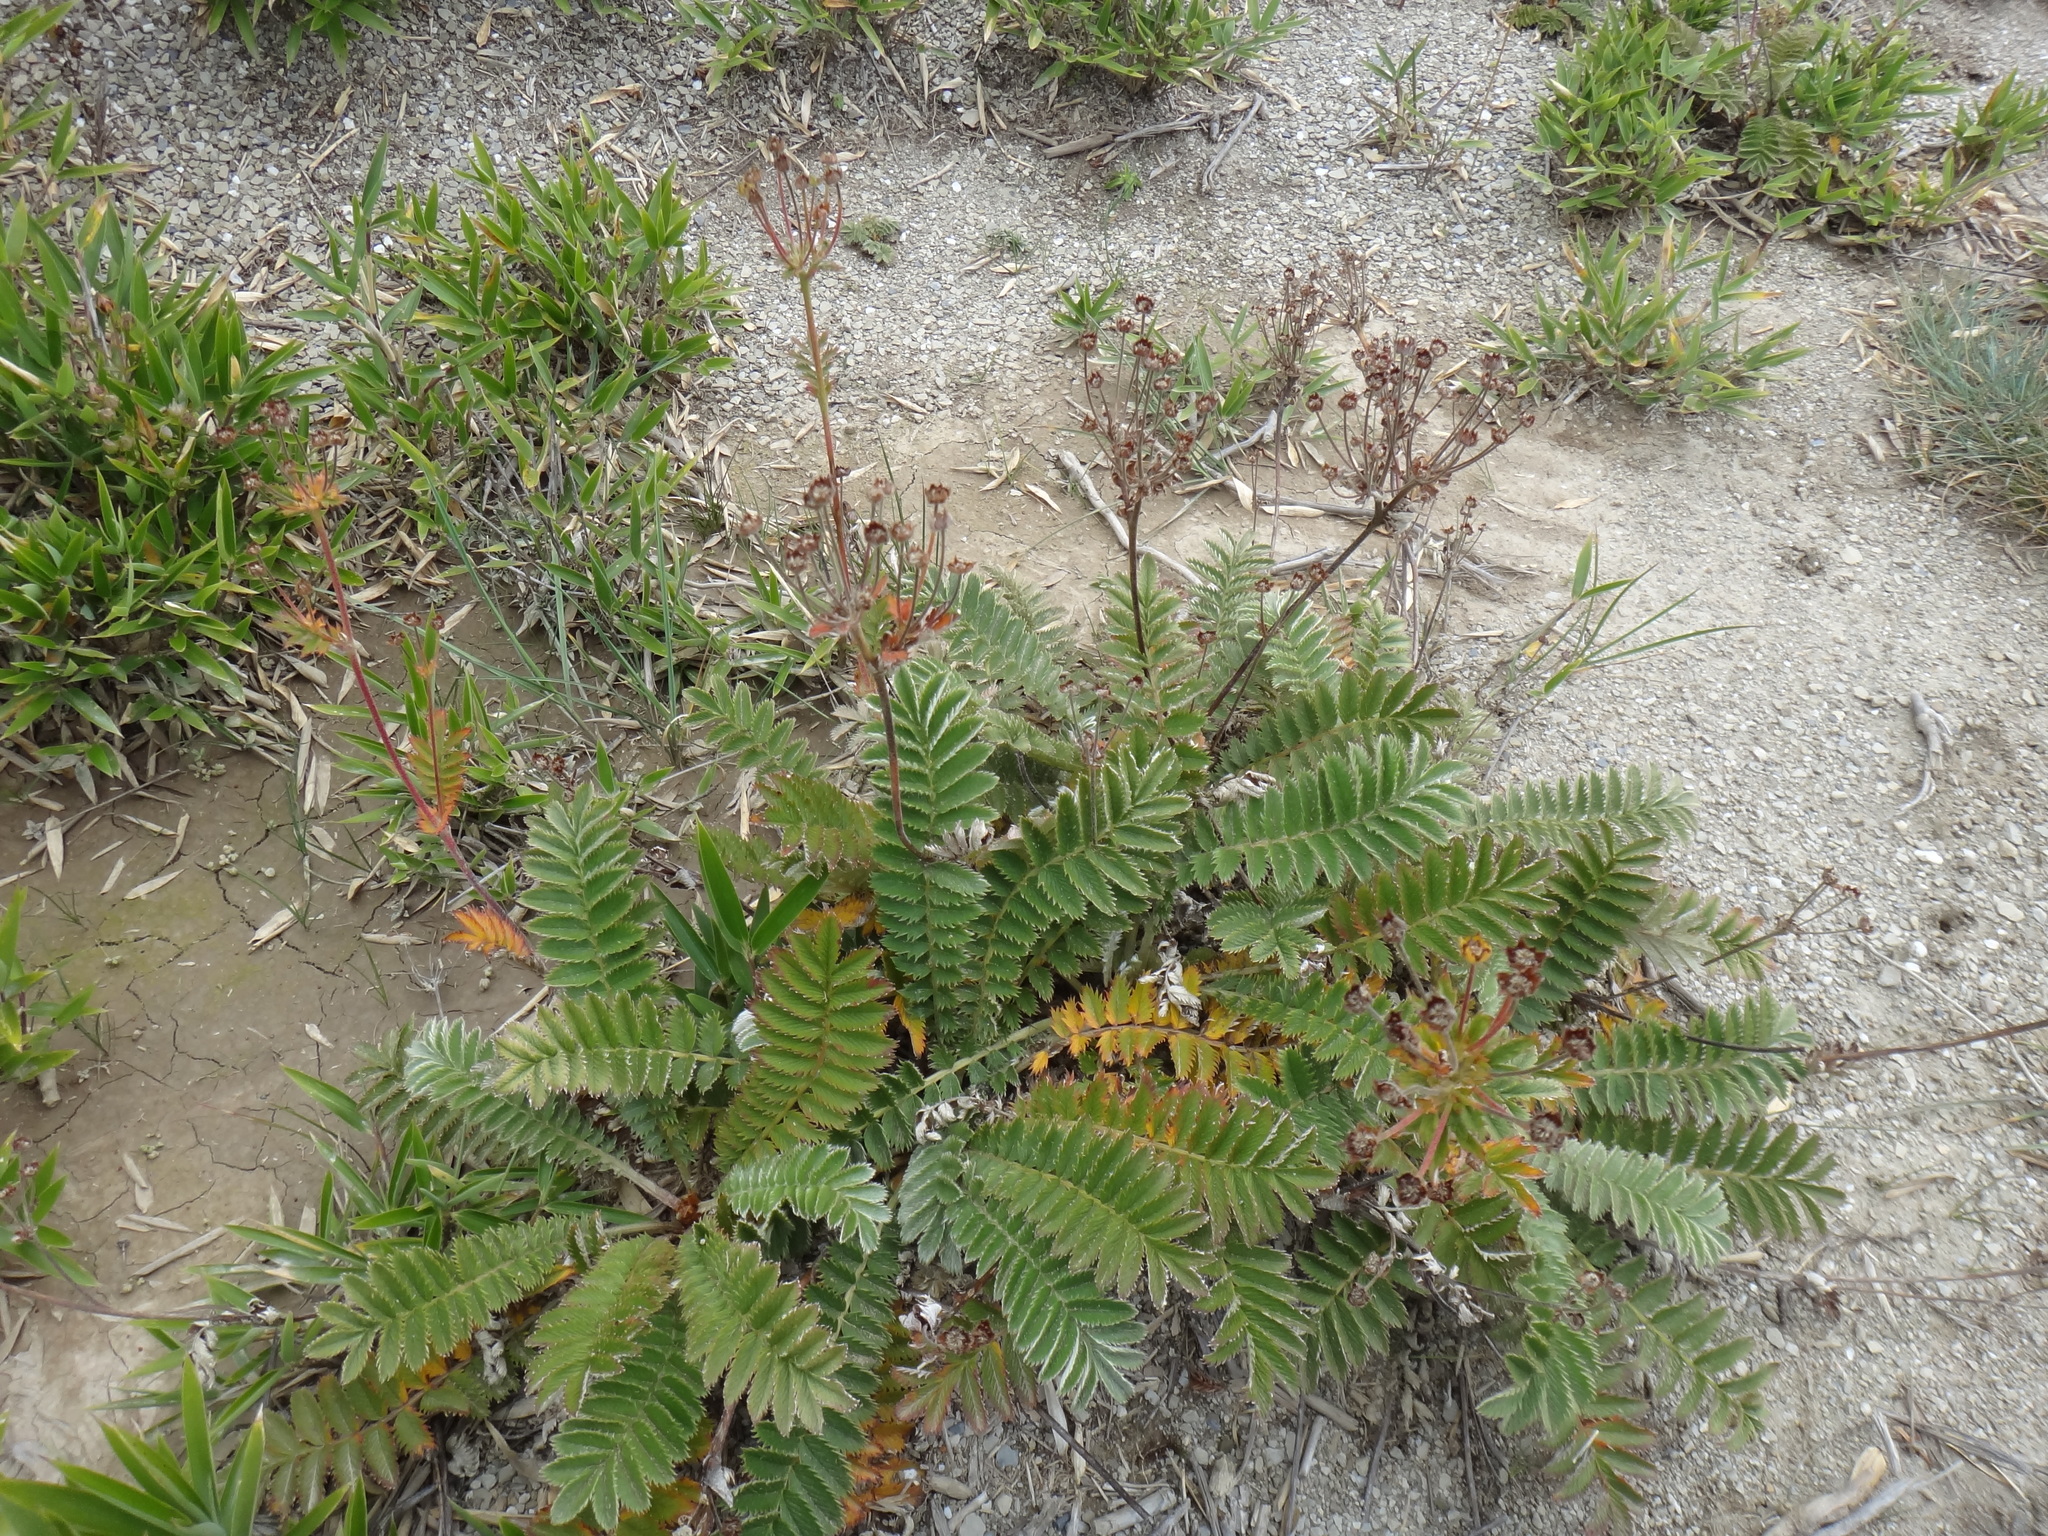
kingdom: Plantae
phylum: Tracheophyta
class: Magnoliopsida
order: Rosales
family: Rosaceae
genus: Argentina
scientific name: Argentina leuconota
